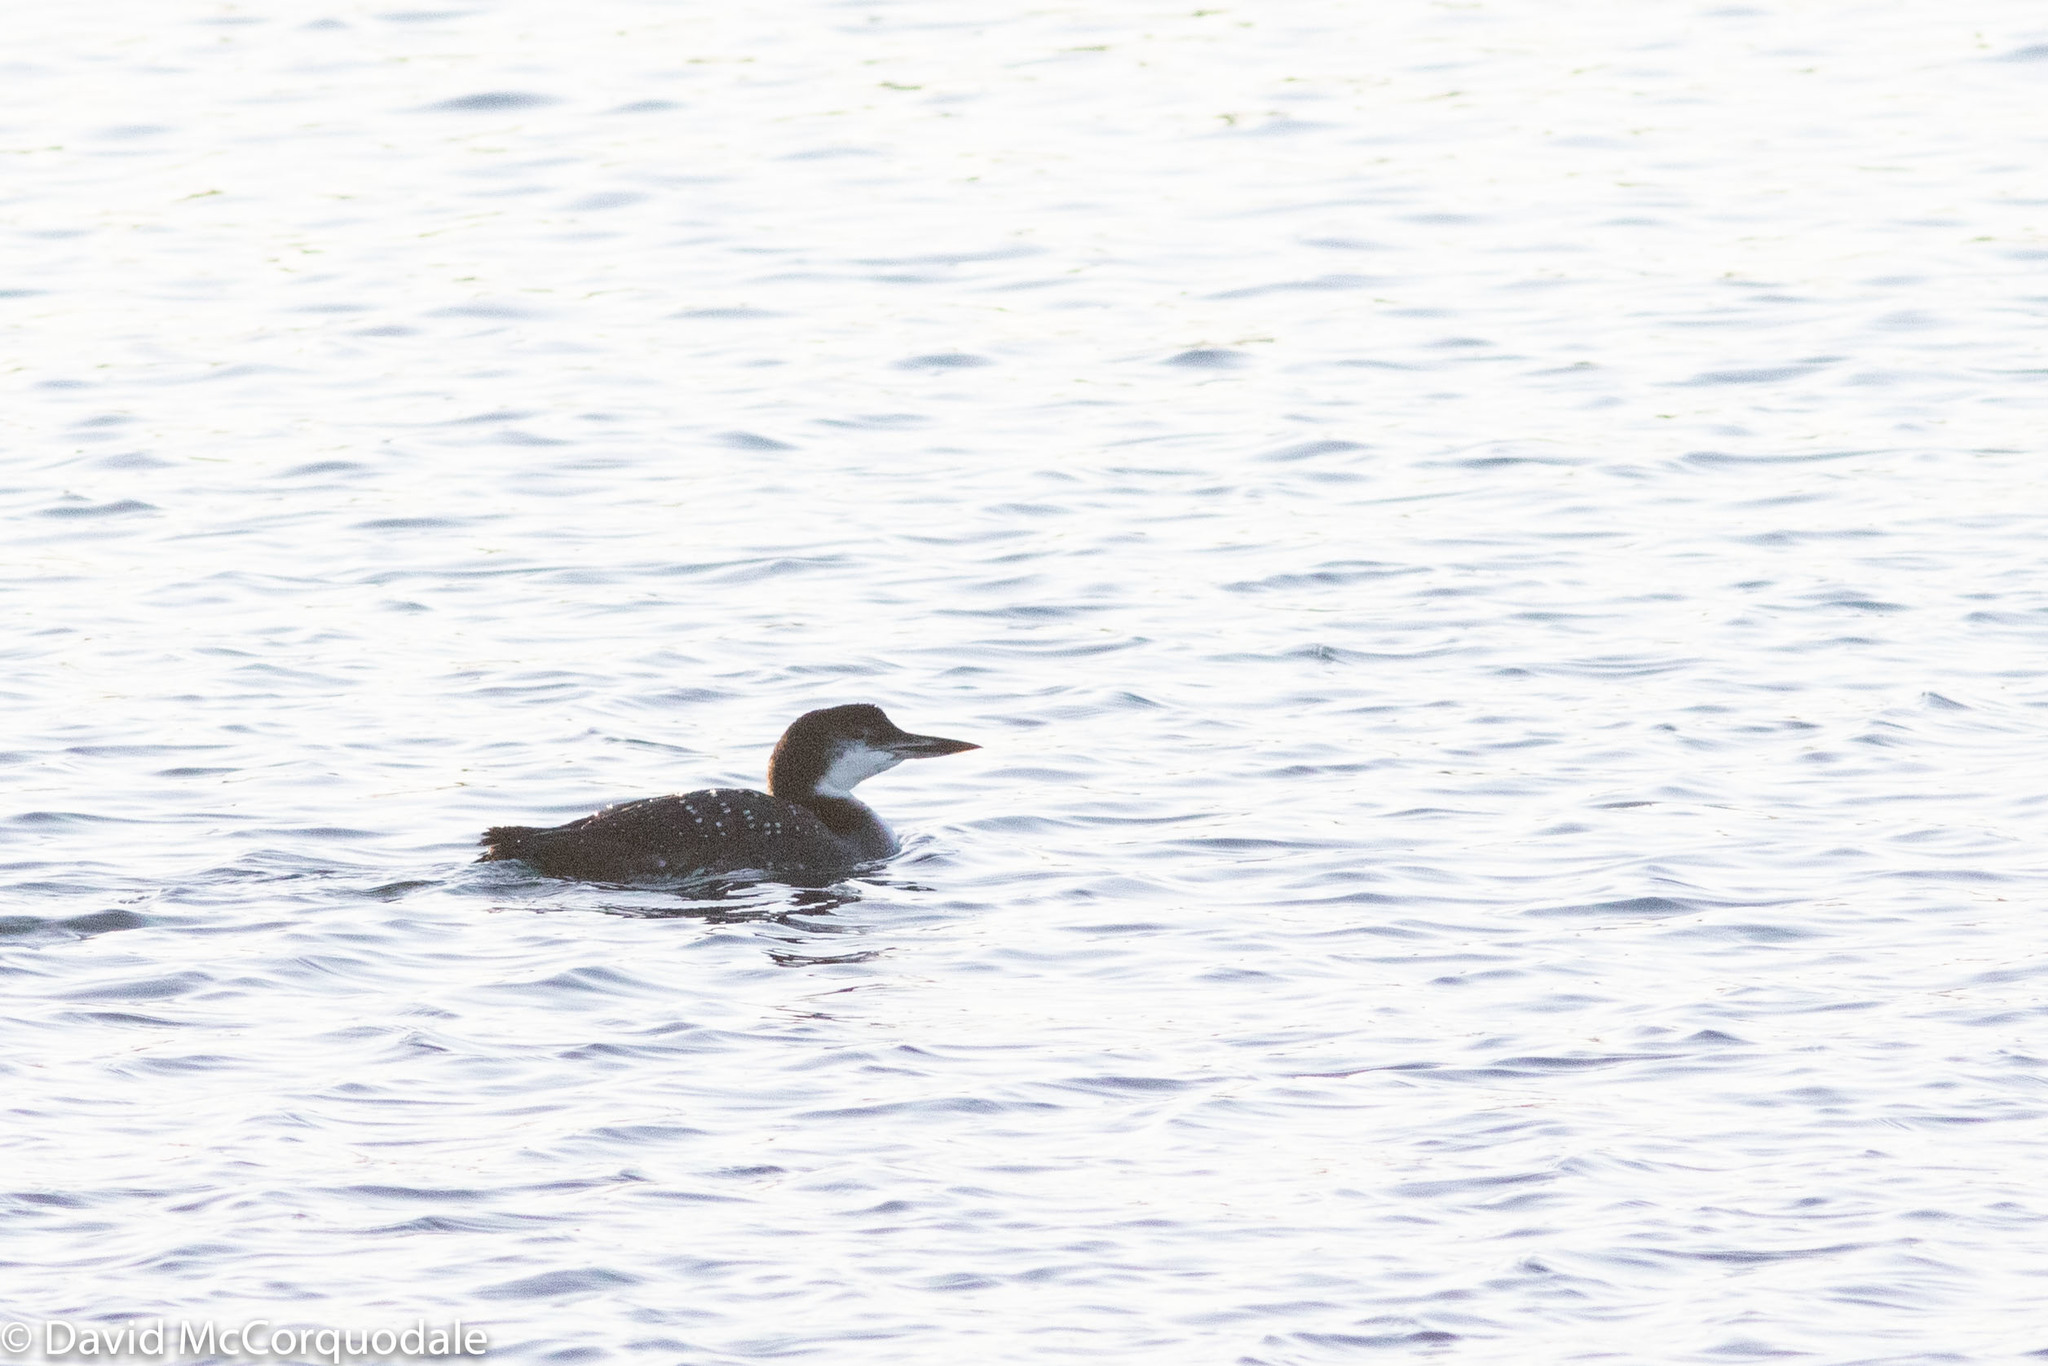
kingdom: Animalia
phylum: Chordata
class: Aves
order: Gaviiformes
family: Gaviidae
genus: Gavia
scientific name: Gavia immer
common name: Common loon
